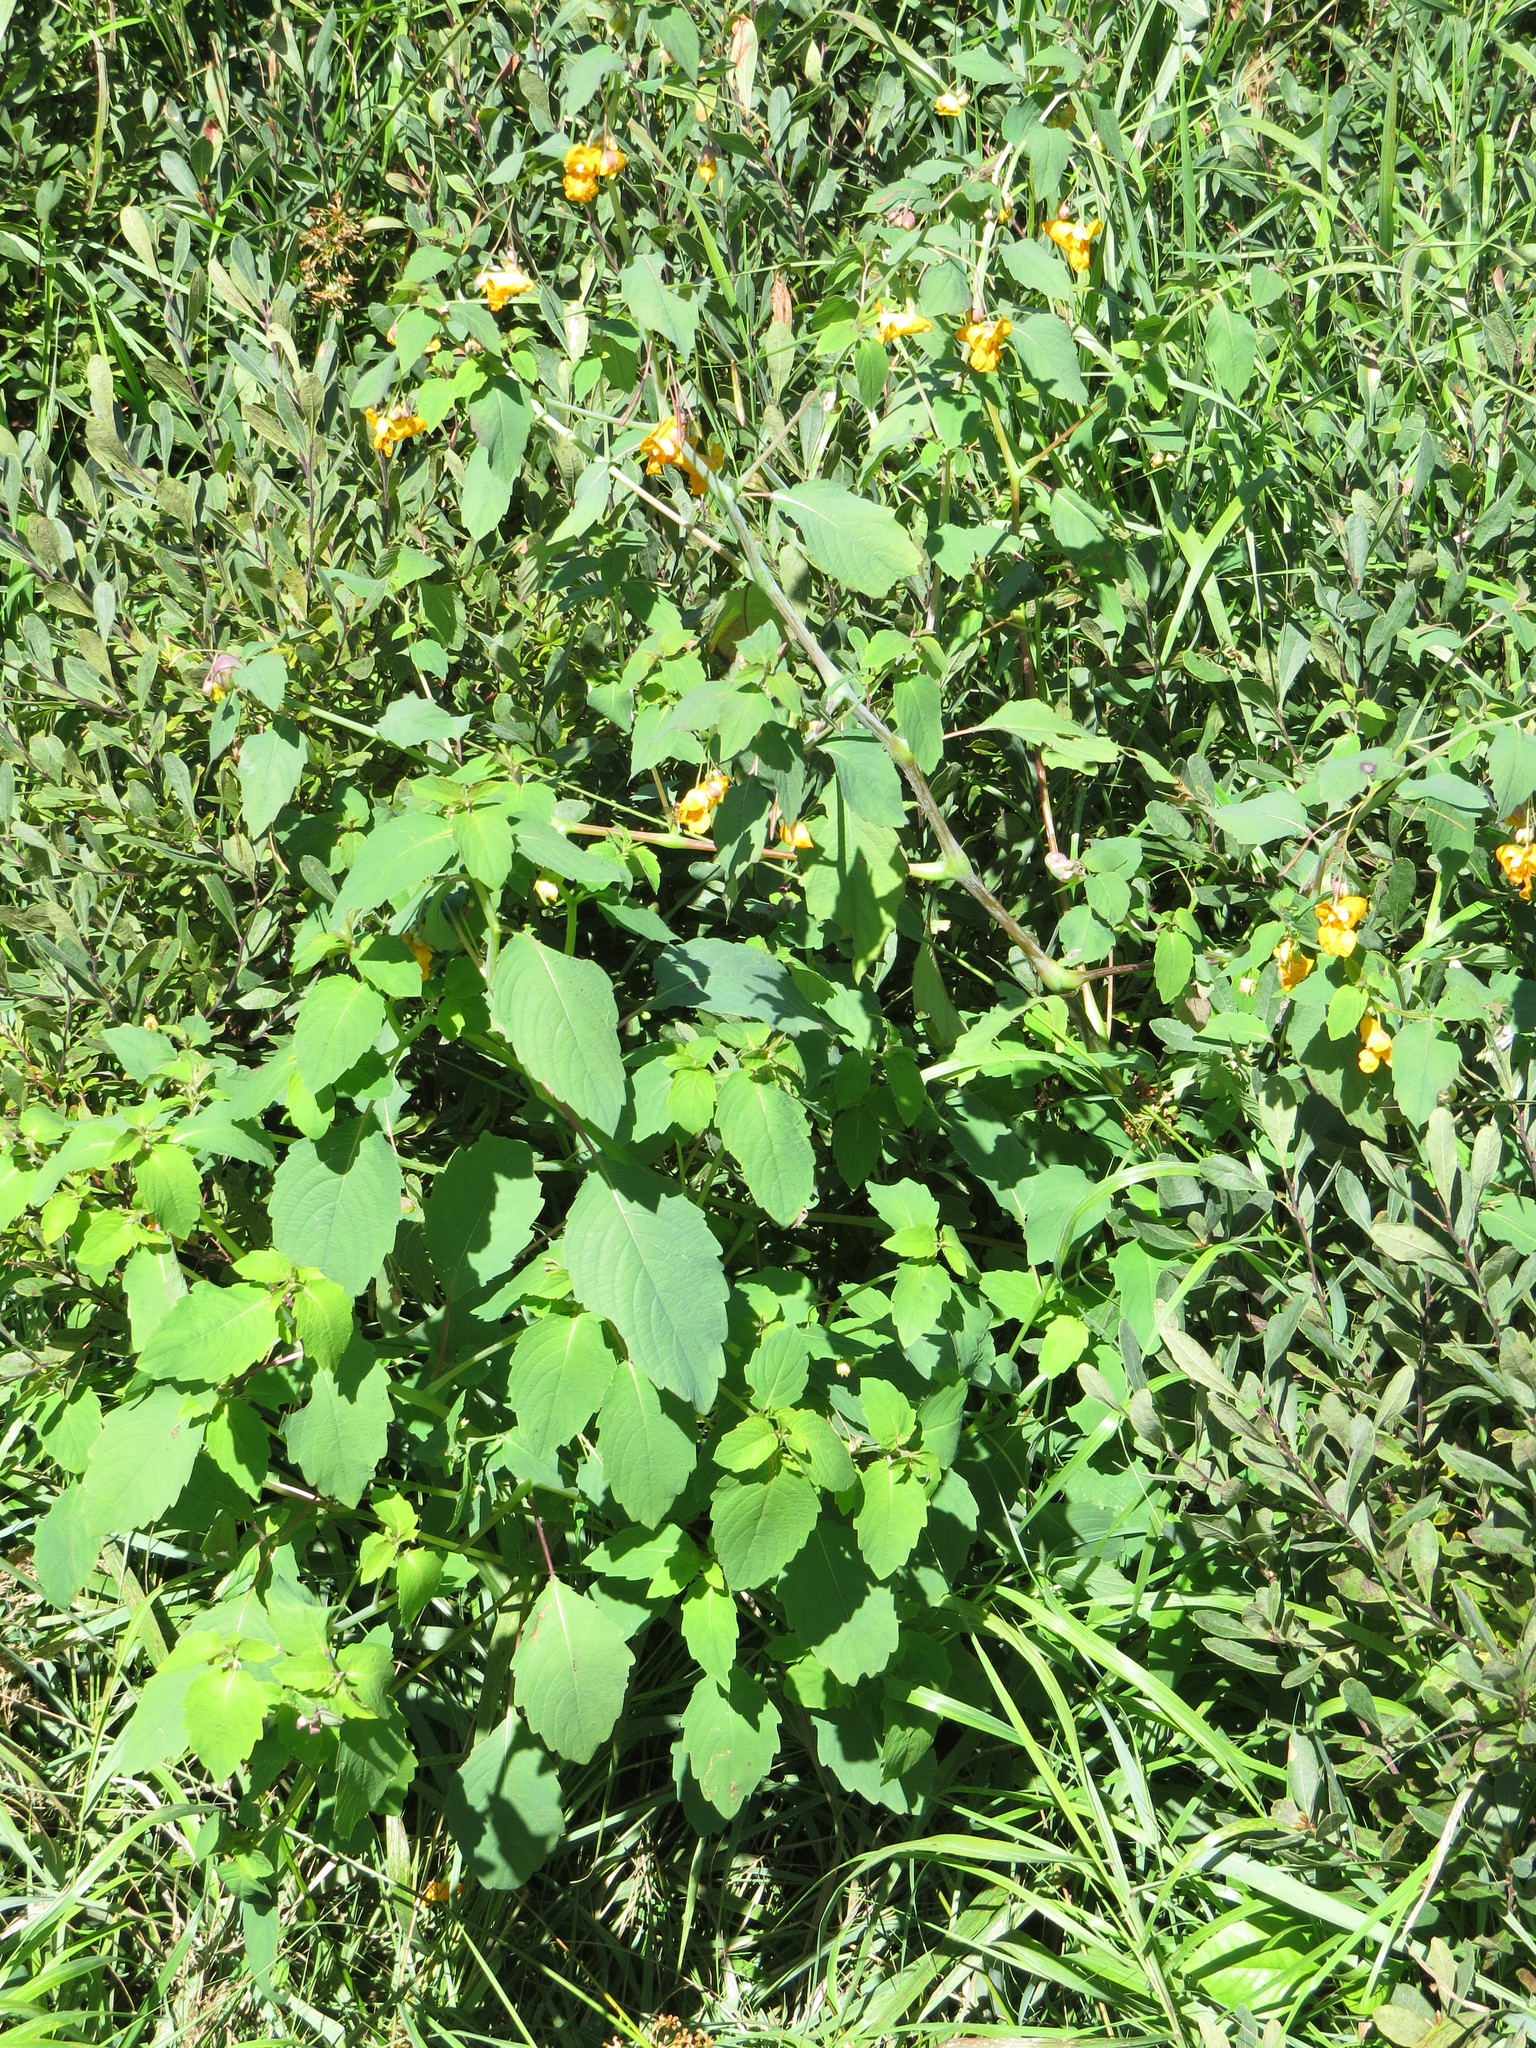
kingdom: Plantae
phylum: Tracheophyta
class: Magnoliopsida
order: Ericales
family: Balsaminaceae
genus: Impatiens
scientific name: Impatiens capensis
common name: Orange balsam
